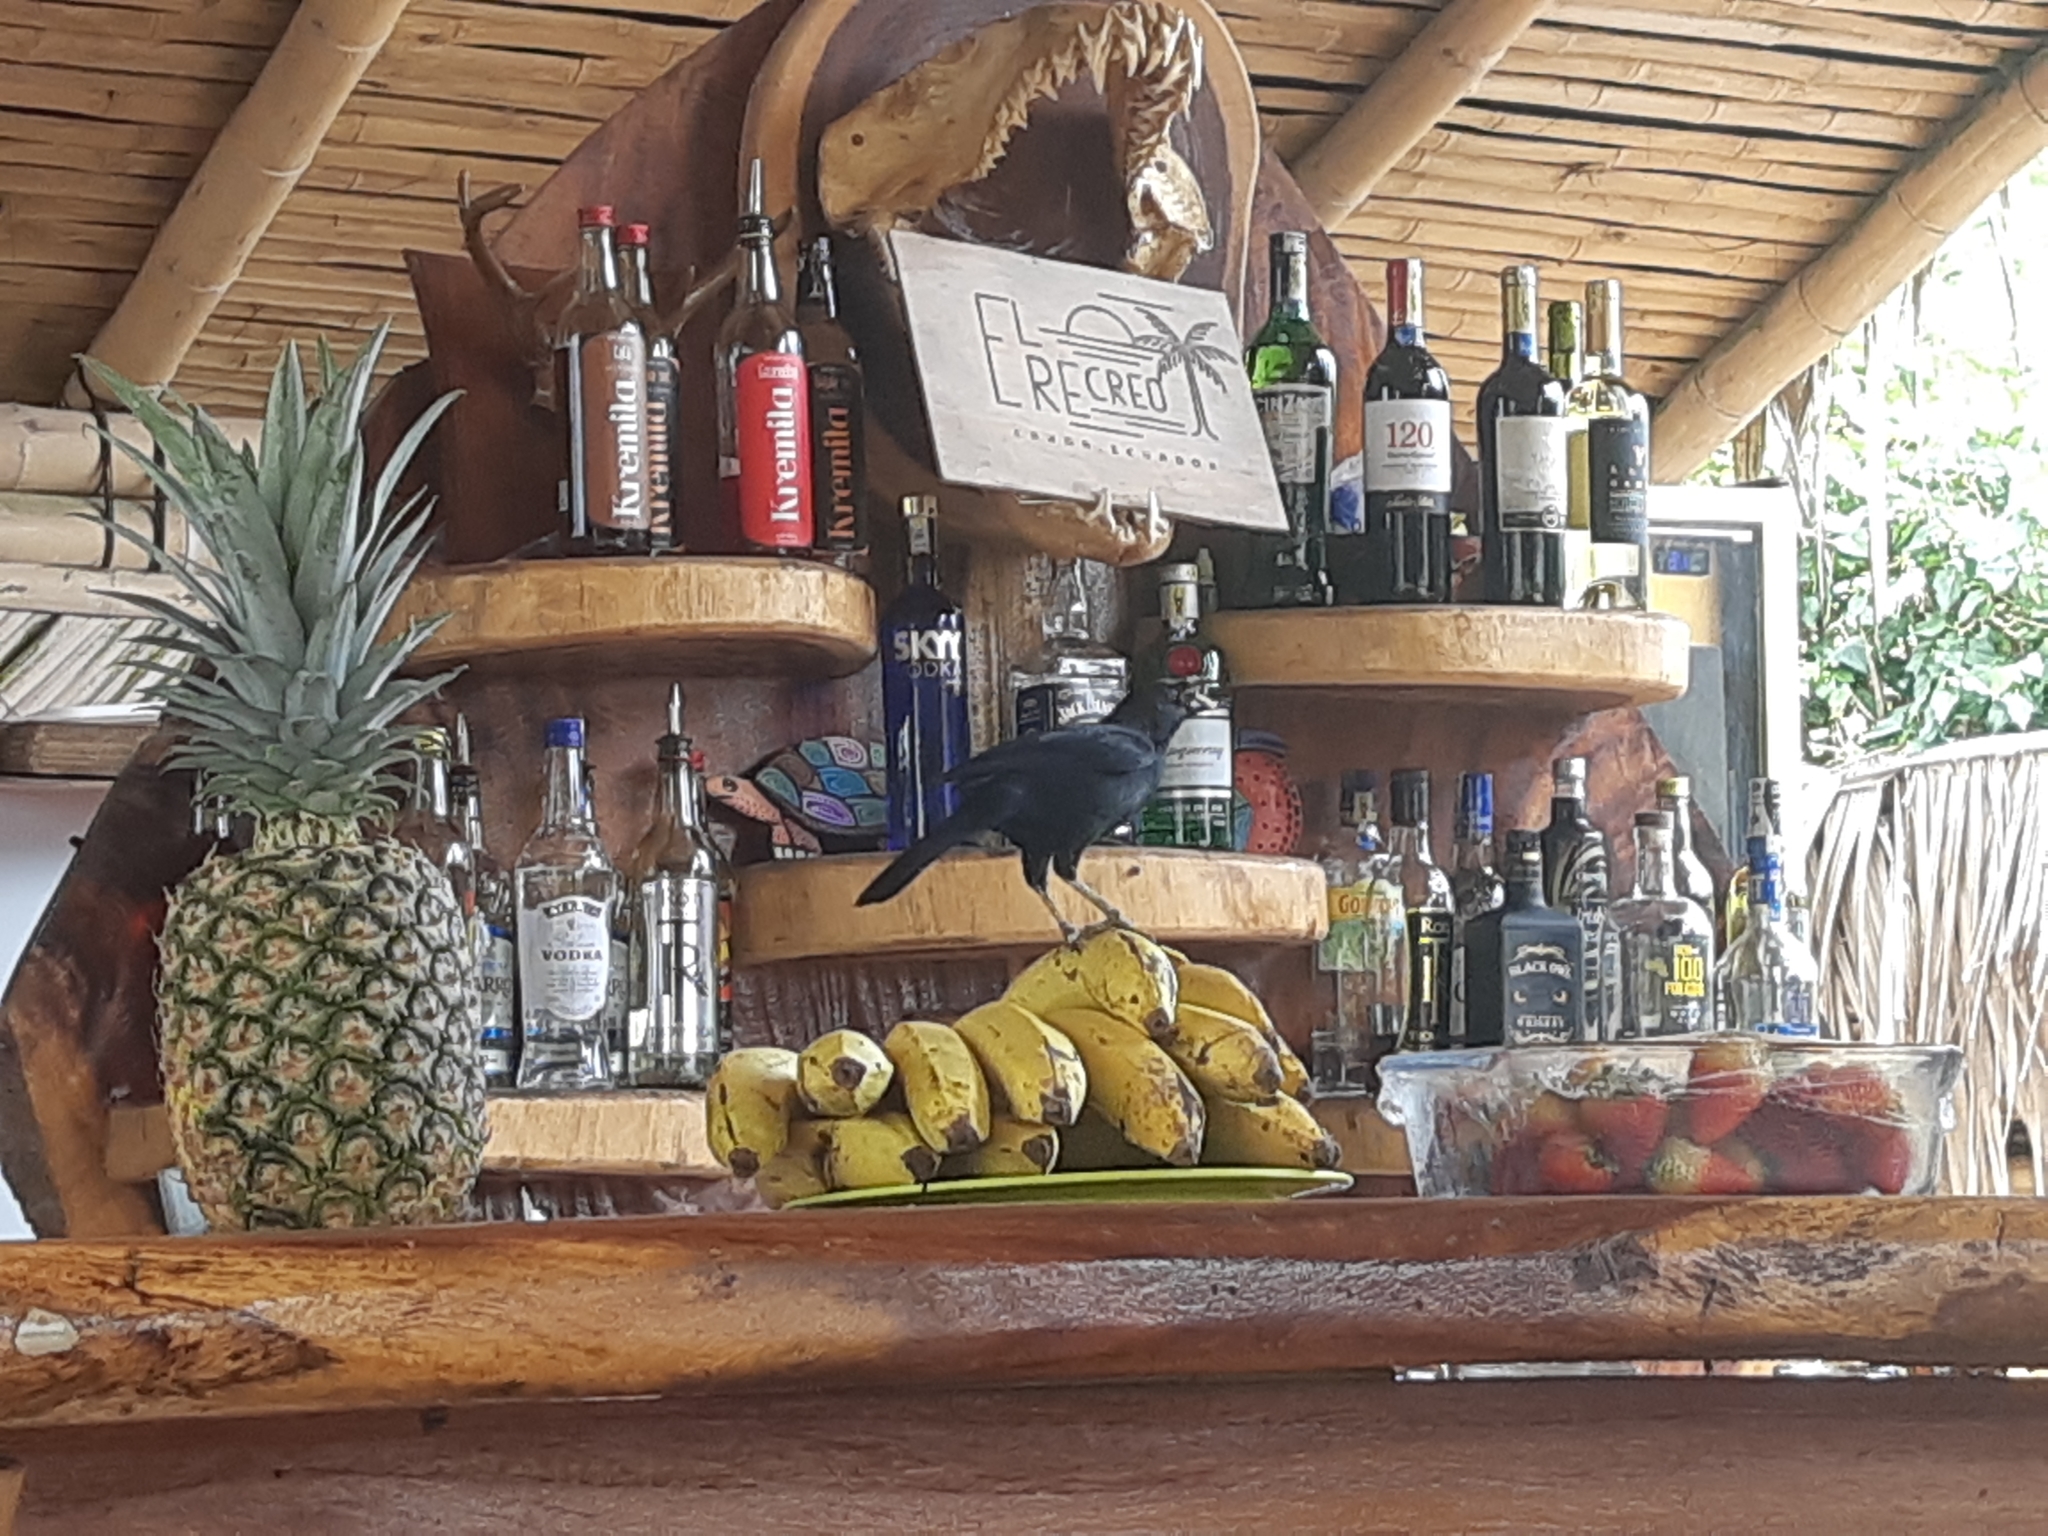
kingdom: Animalia
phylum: Chordata
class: Aves
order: Passeriformes
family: Icteridae
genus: Dives
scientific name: Dives warczewiczi
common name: Scrub blackbird
